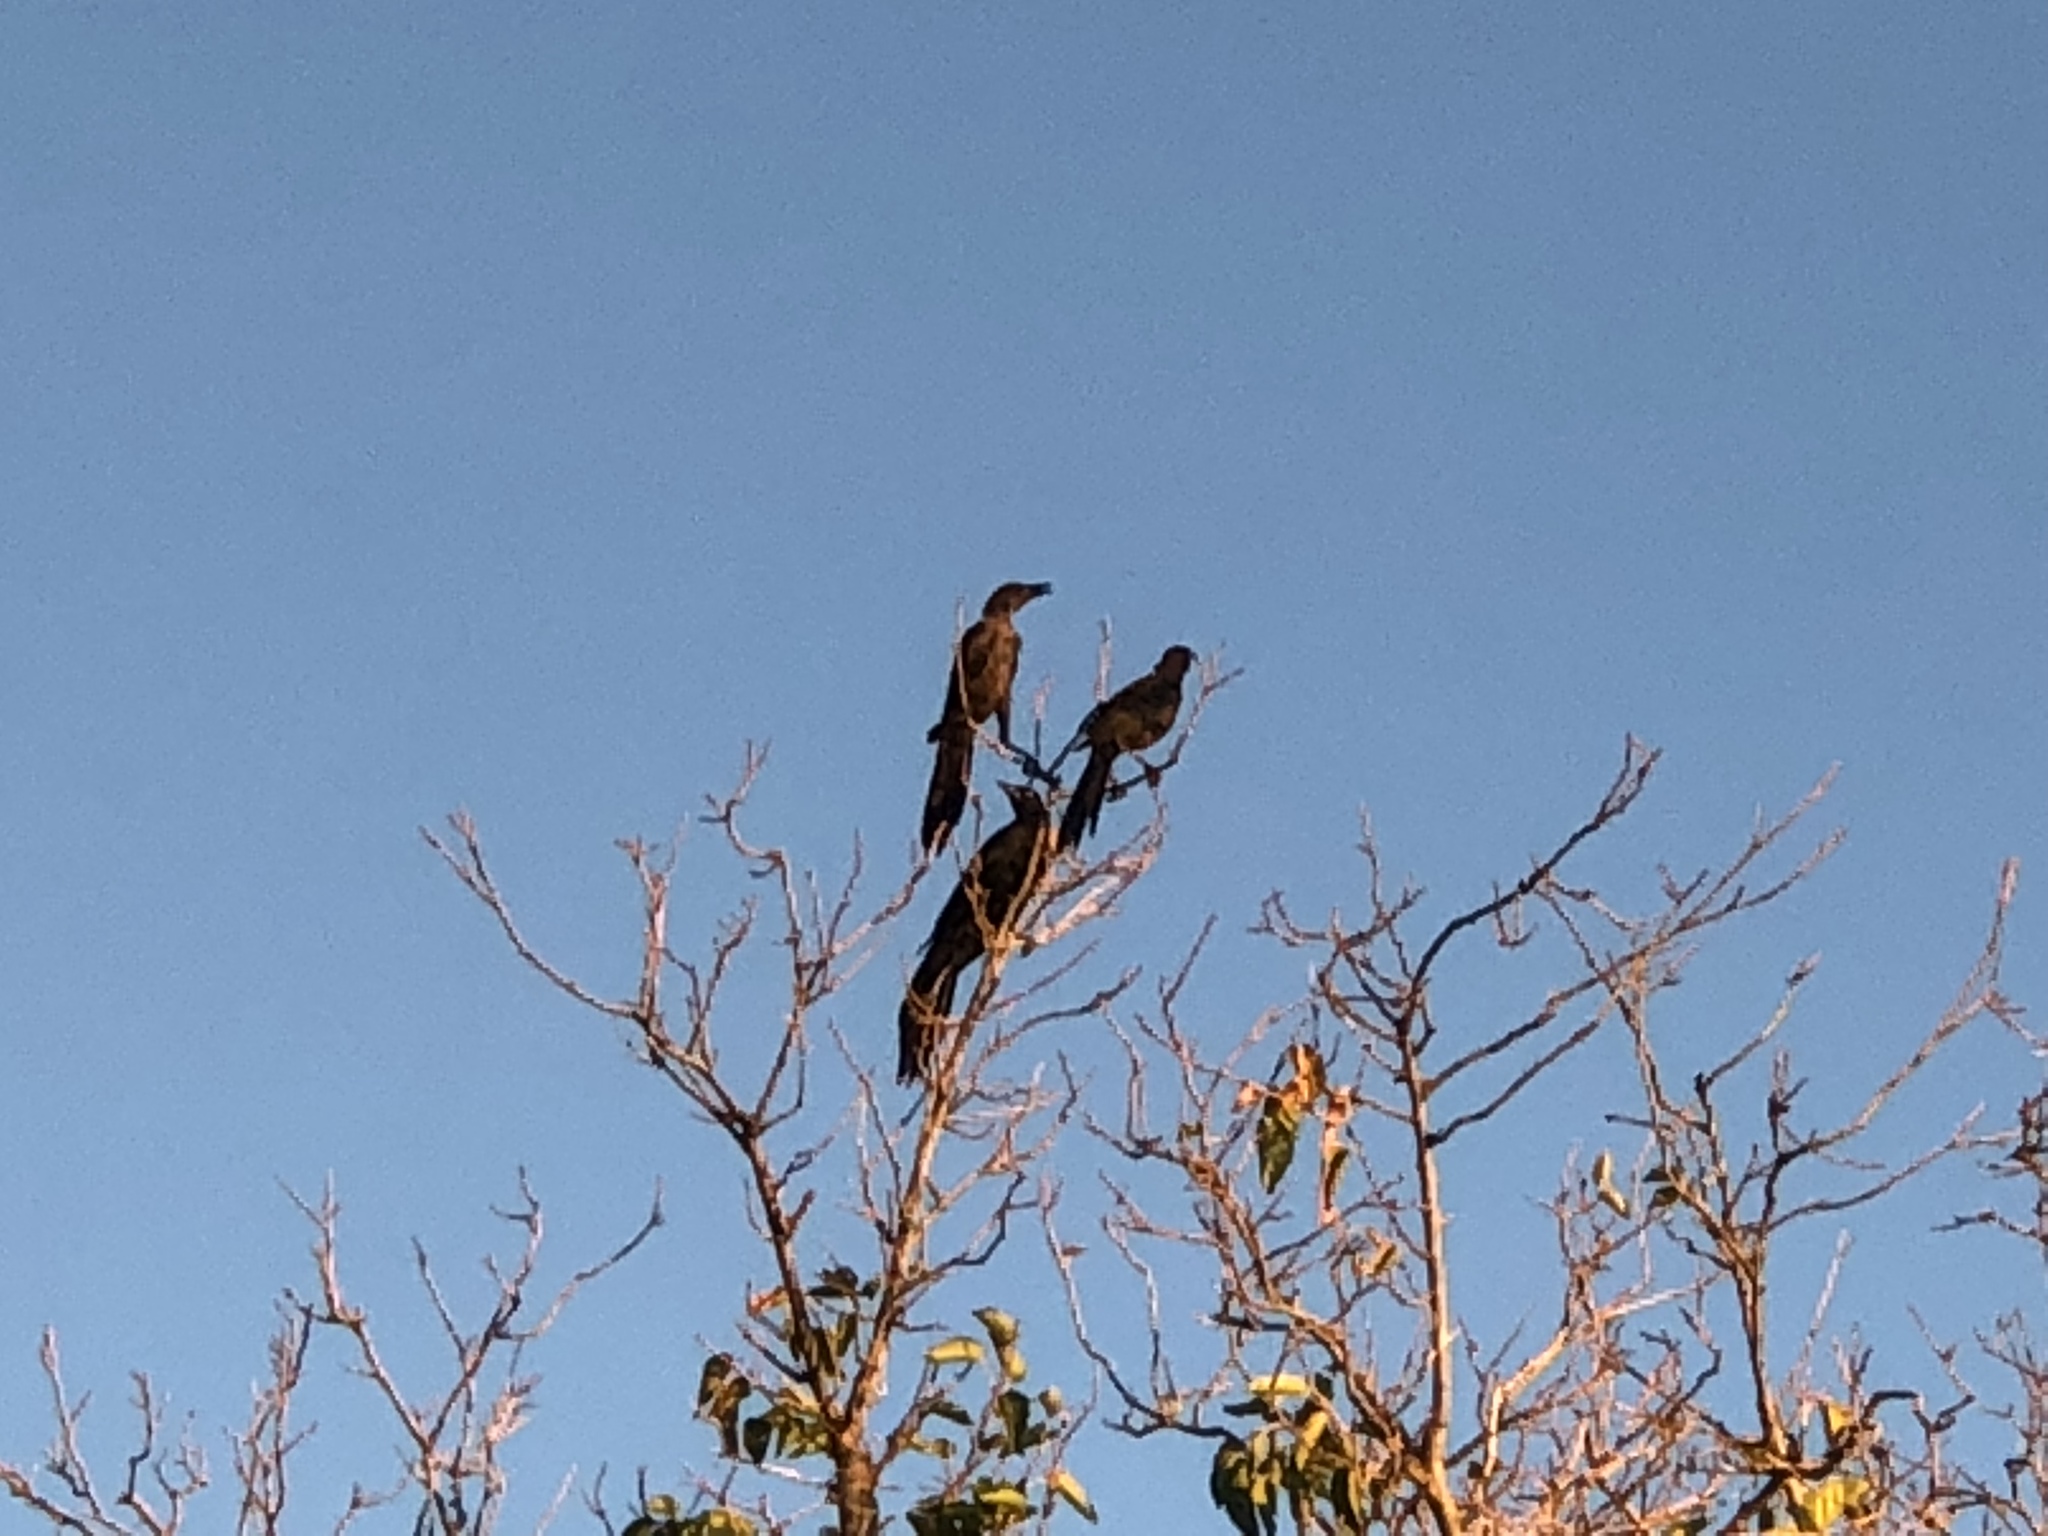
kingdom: Animalia
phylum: Chordata
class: Aves
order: Passeriformes
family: Icteridae
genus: Quiscalus
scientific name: Quiscalus mexicanus
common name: Great-tailed grackle
